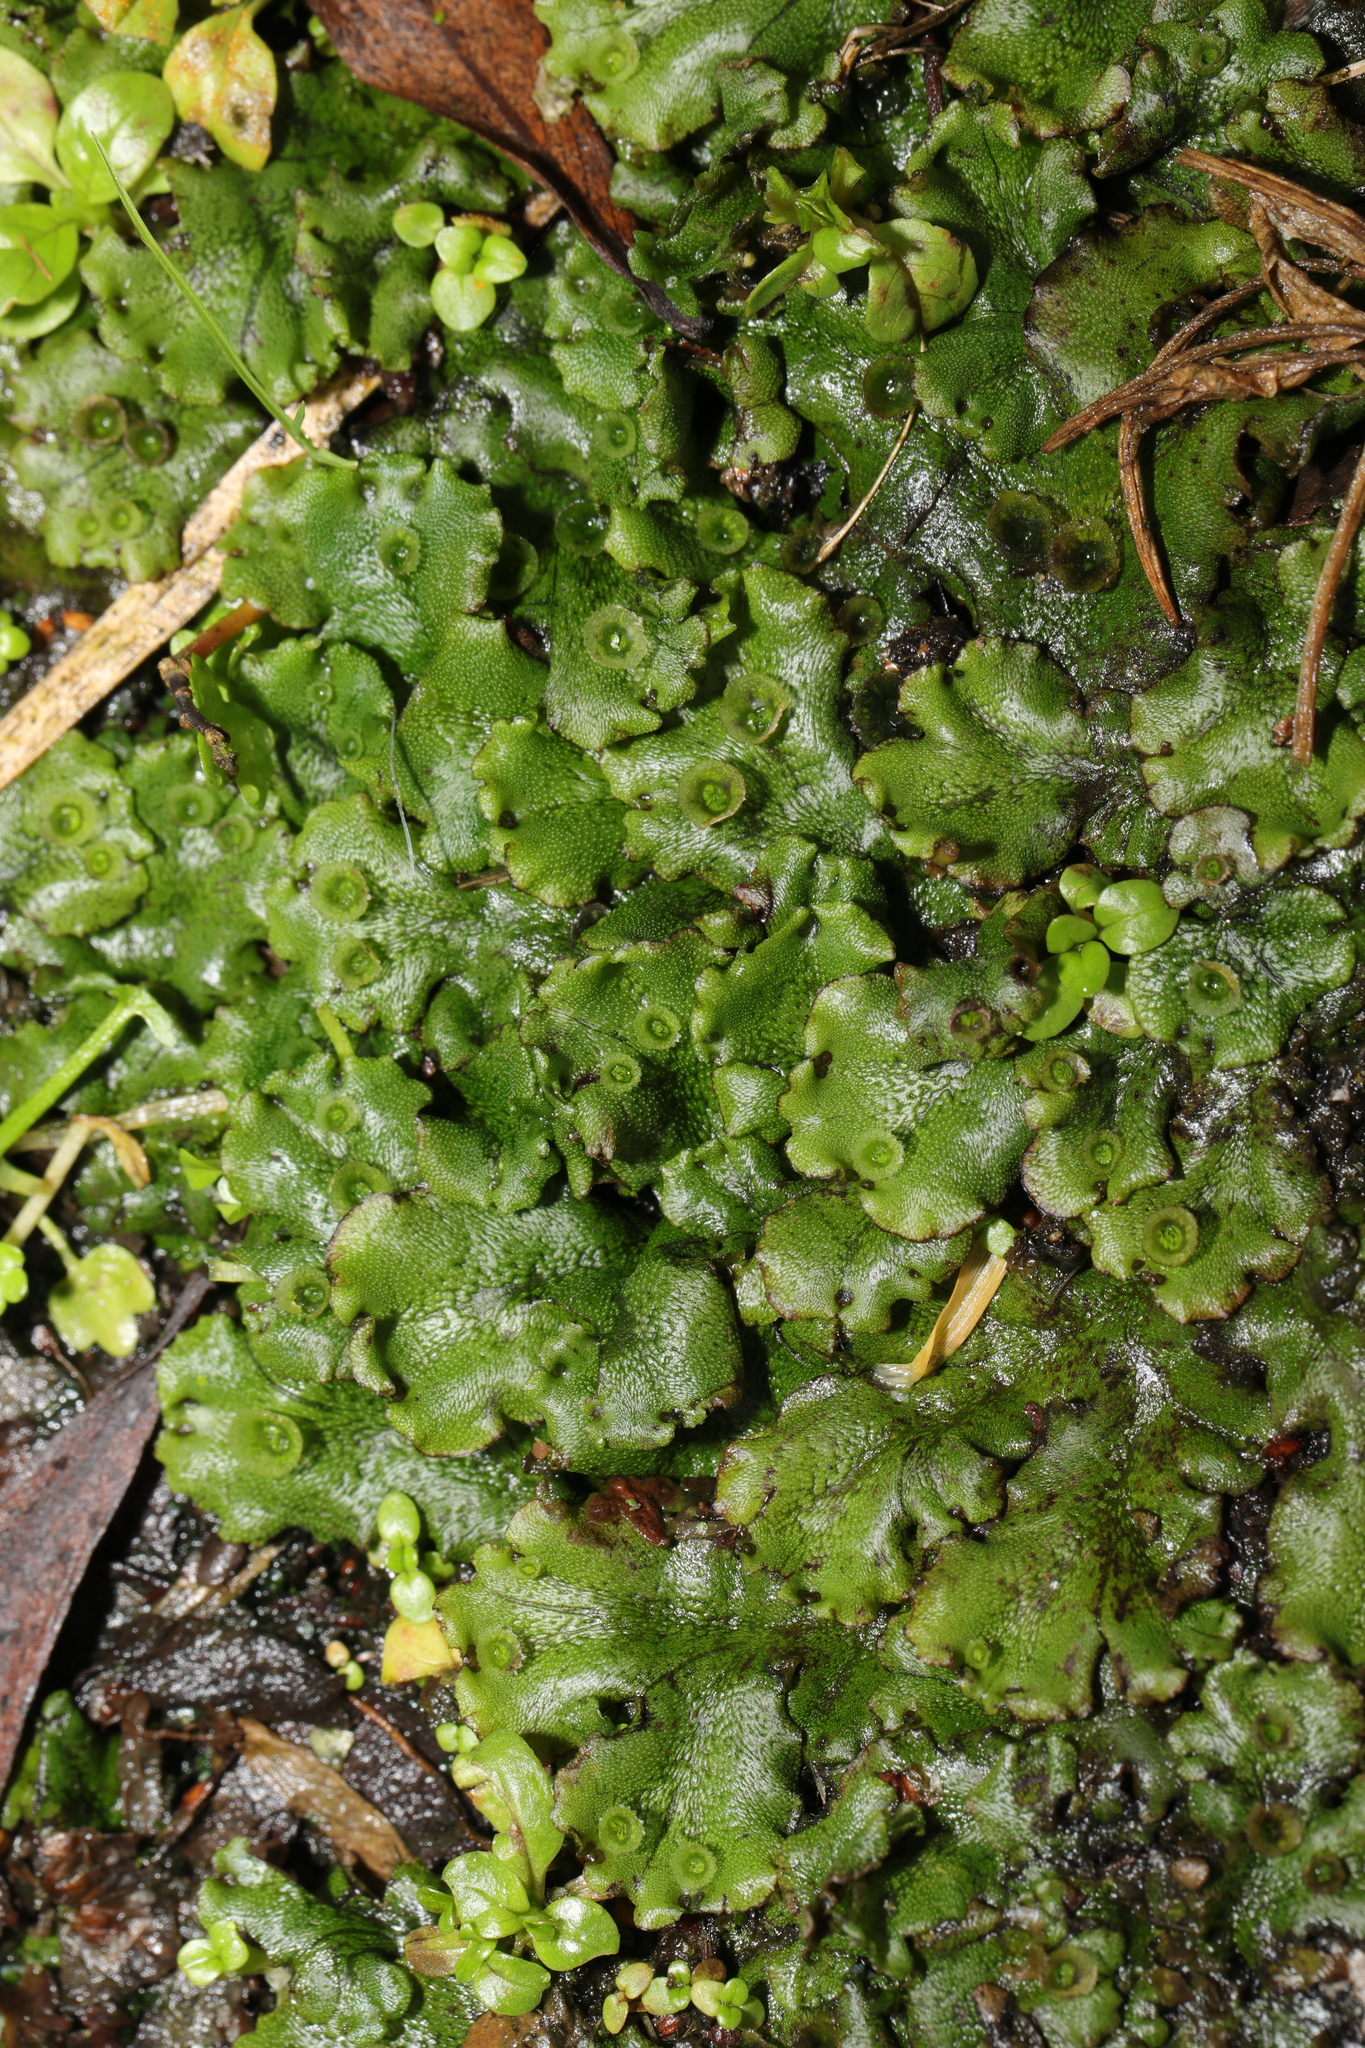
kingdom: Plantae
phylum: Marchantiophyta
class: Marchantiopsida
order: Marchantiales
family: Marchantiaceae
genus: Marchantia
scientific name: Marchantia polymorpha
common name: Common liverwort
